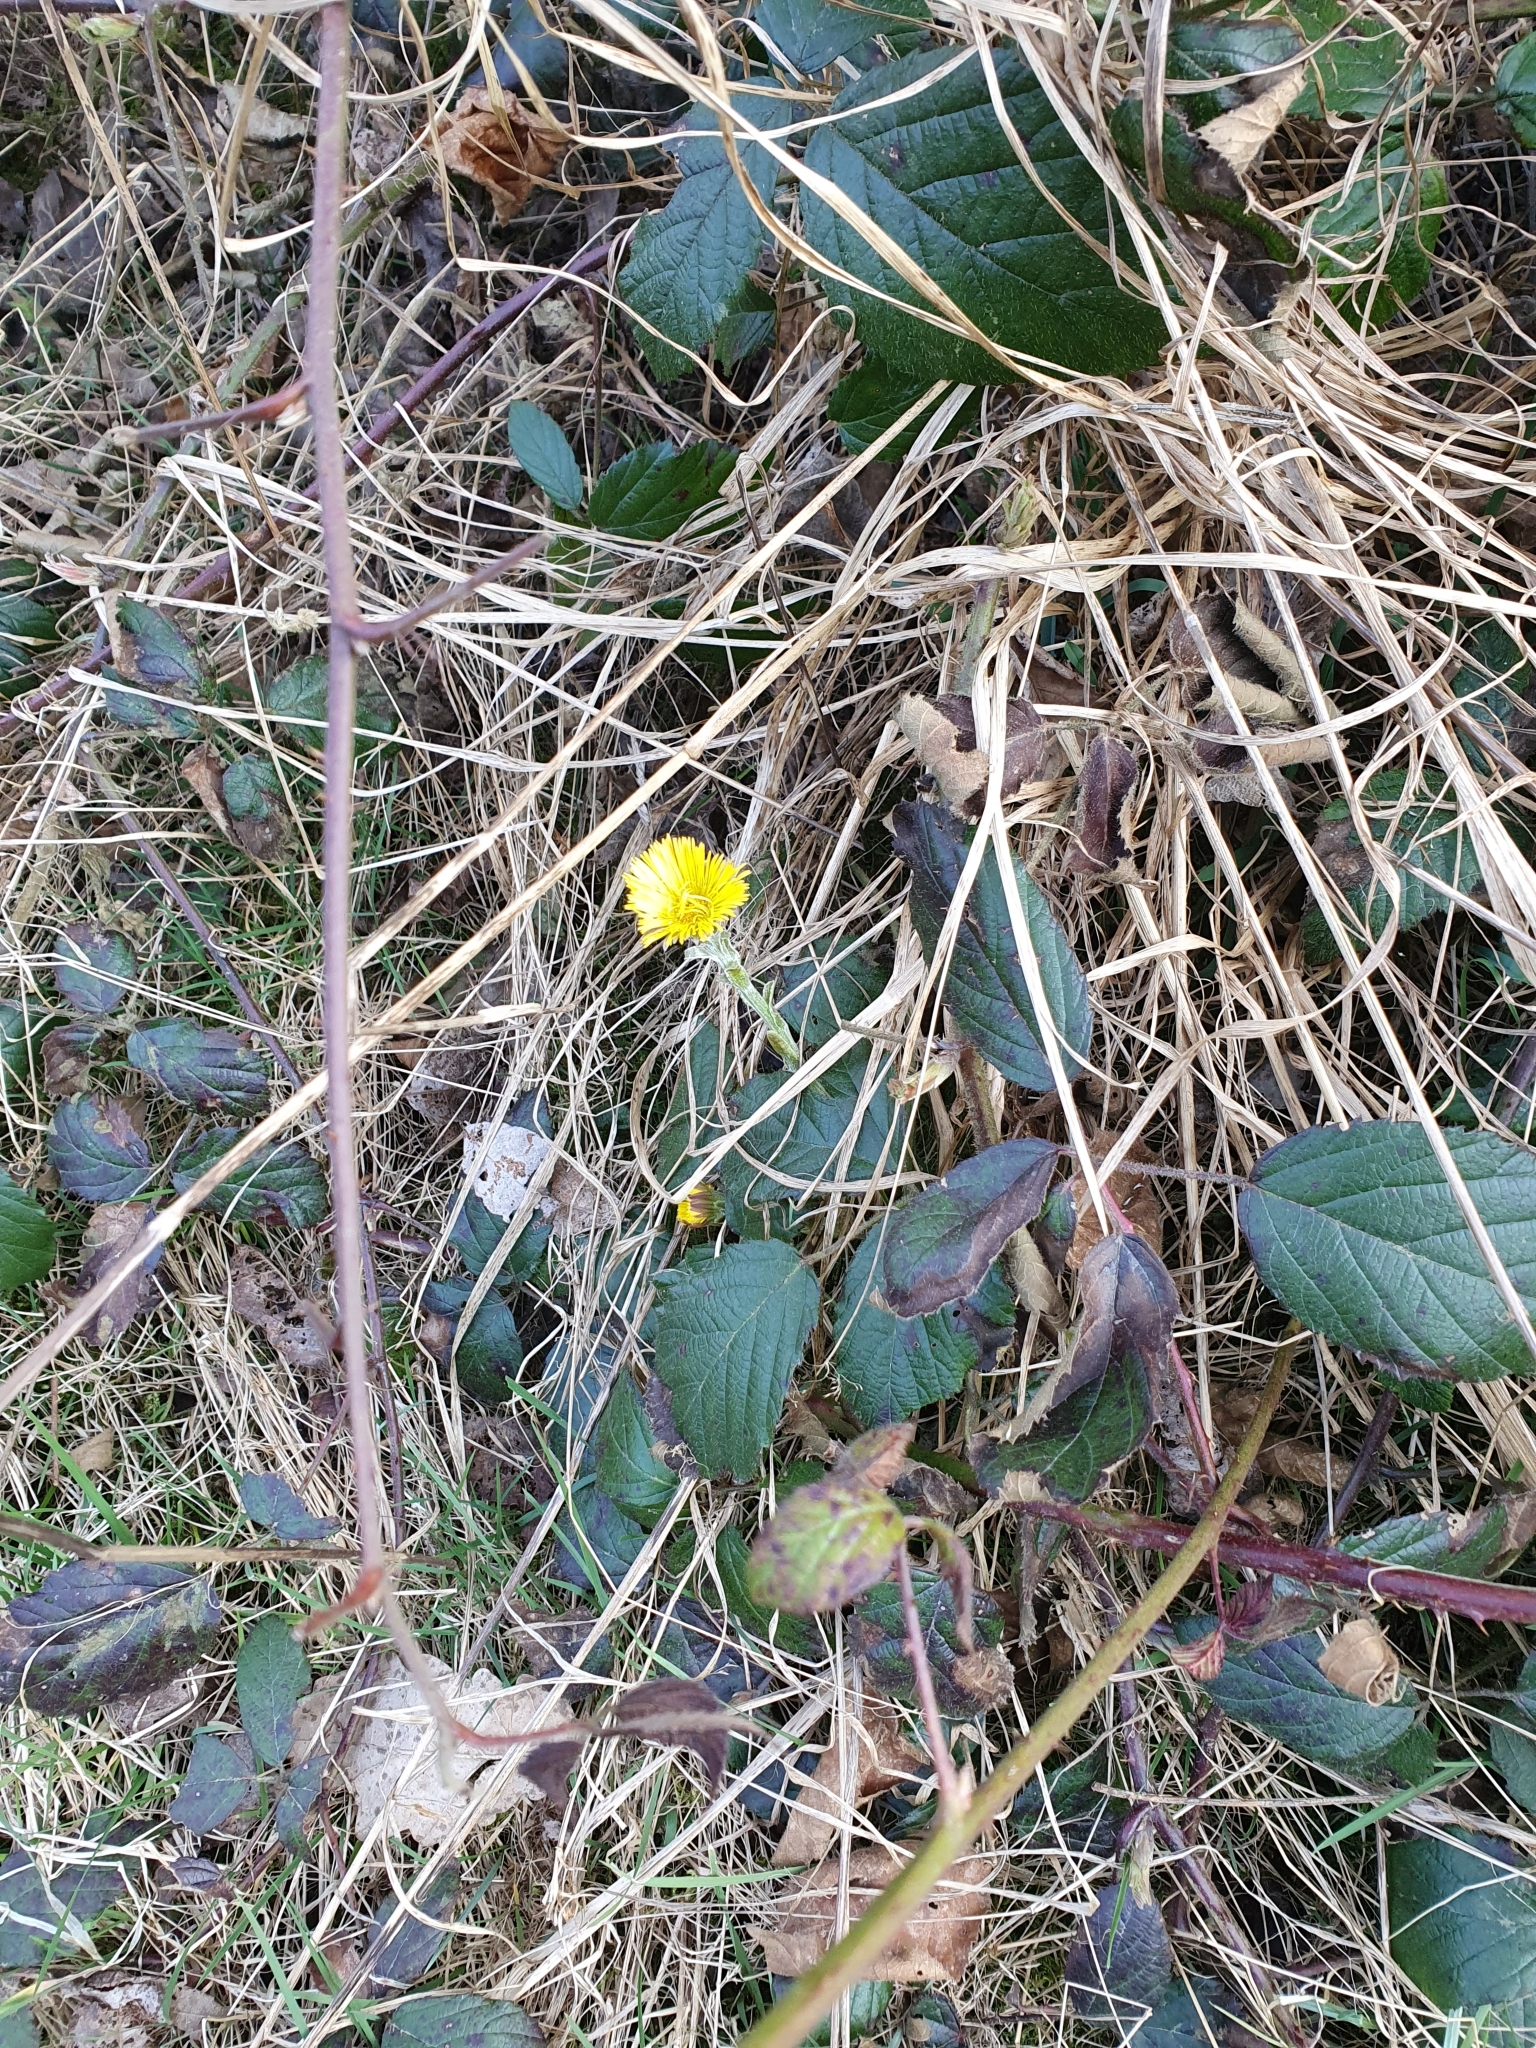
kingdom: Plantae
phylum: Tracheophyta
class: Magnoliopsida
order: Asterales
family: Asteraceae
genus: Tussilago
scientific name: Tussilago farfara
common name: Coltsfoot
